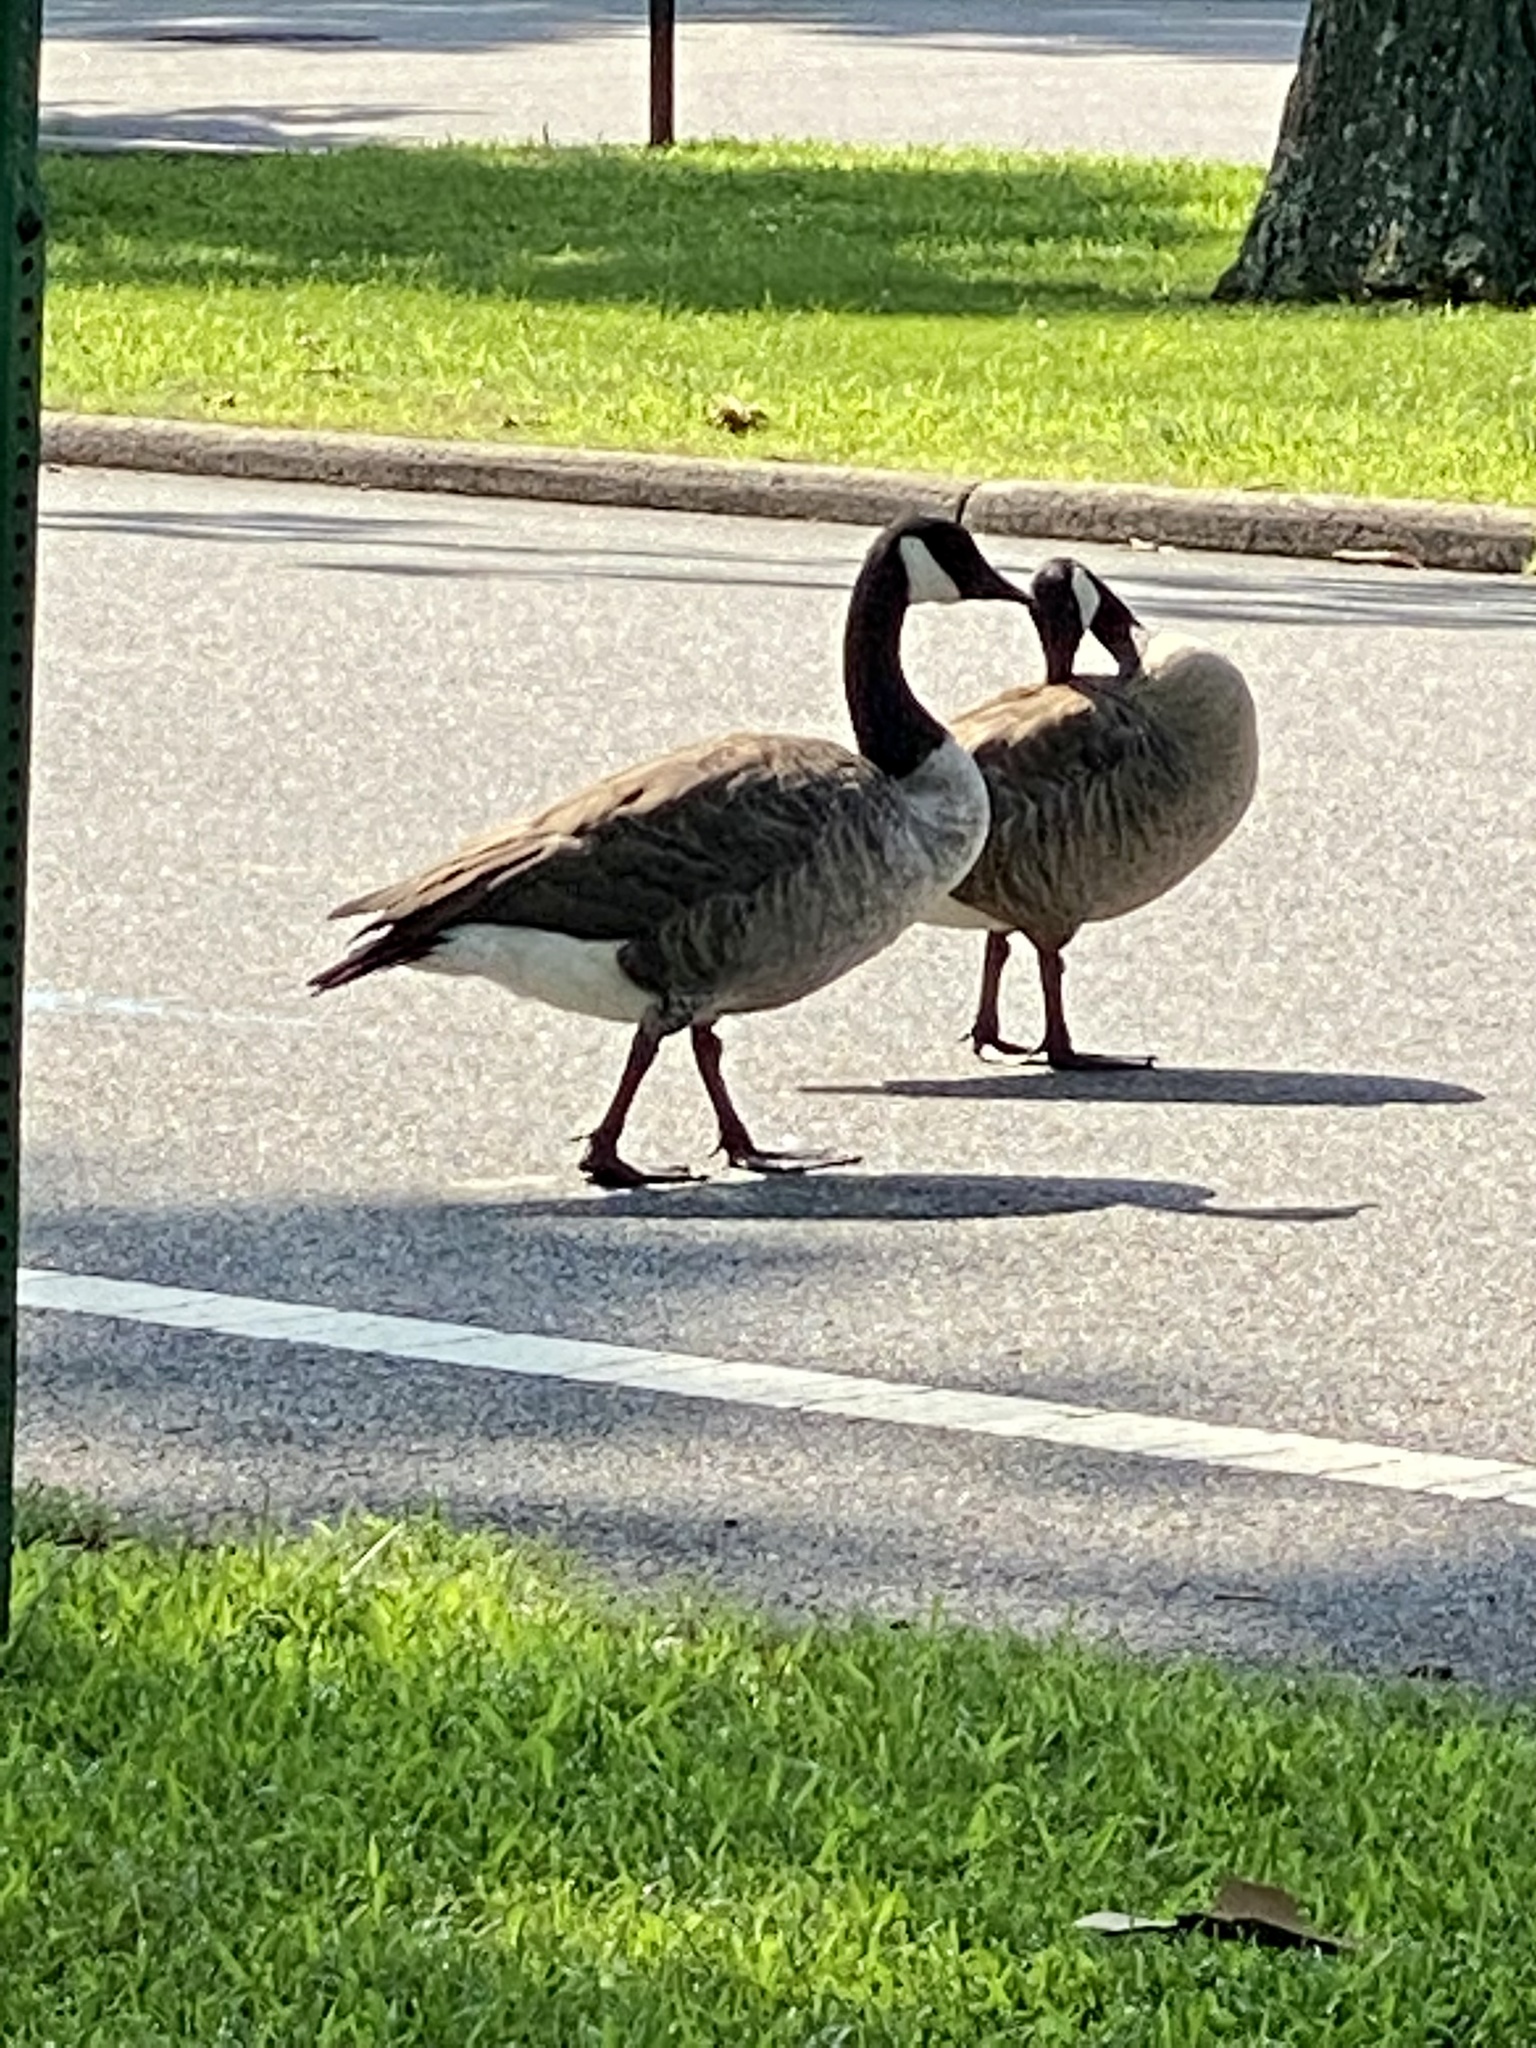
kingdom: Animalia
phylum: Chordata
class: Aves
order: Anseriformes
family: Anatidae
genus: Branta
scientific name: Branta canadensis
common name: Canada goose
